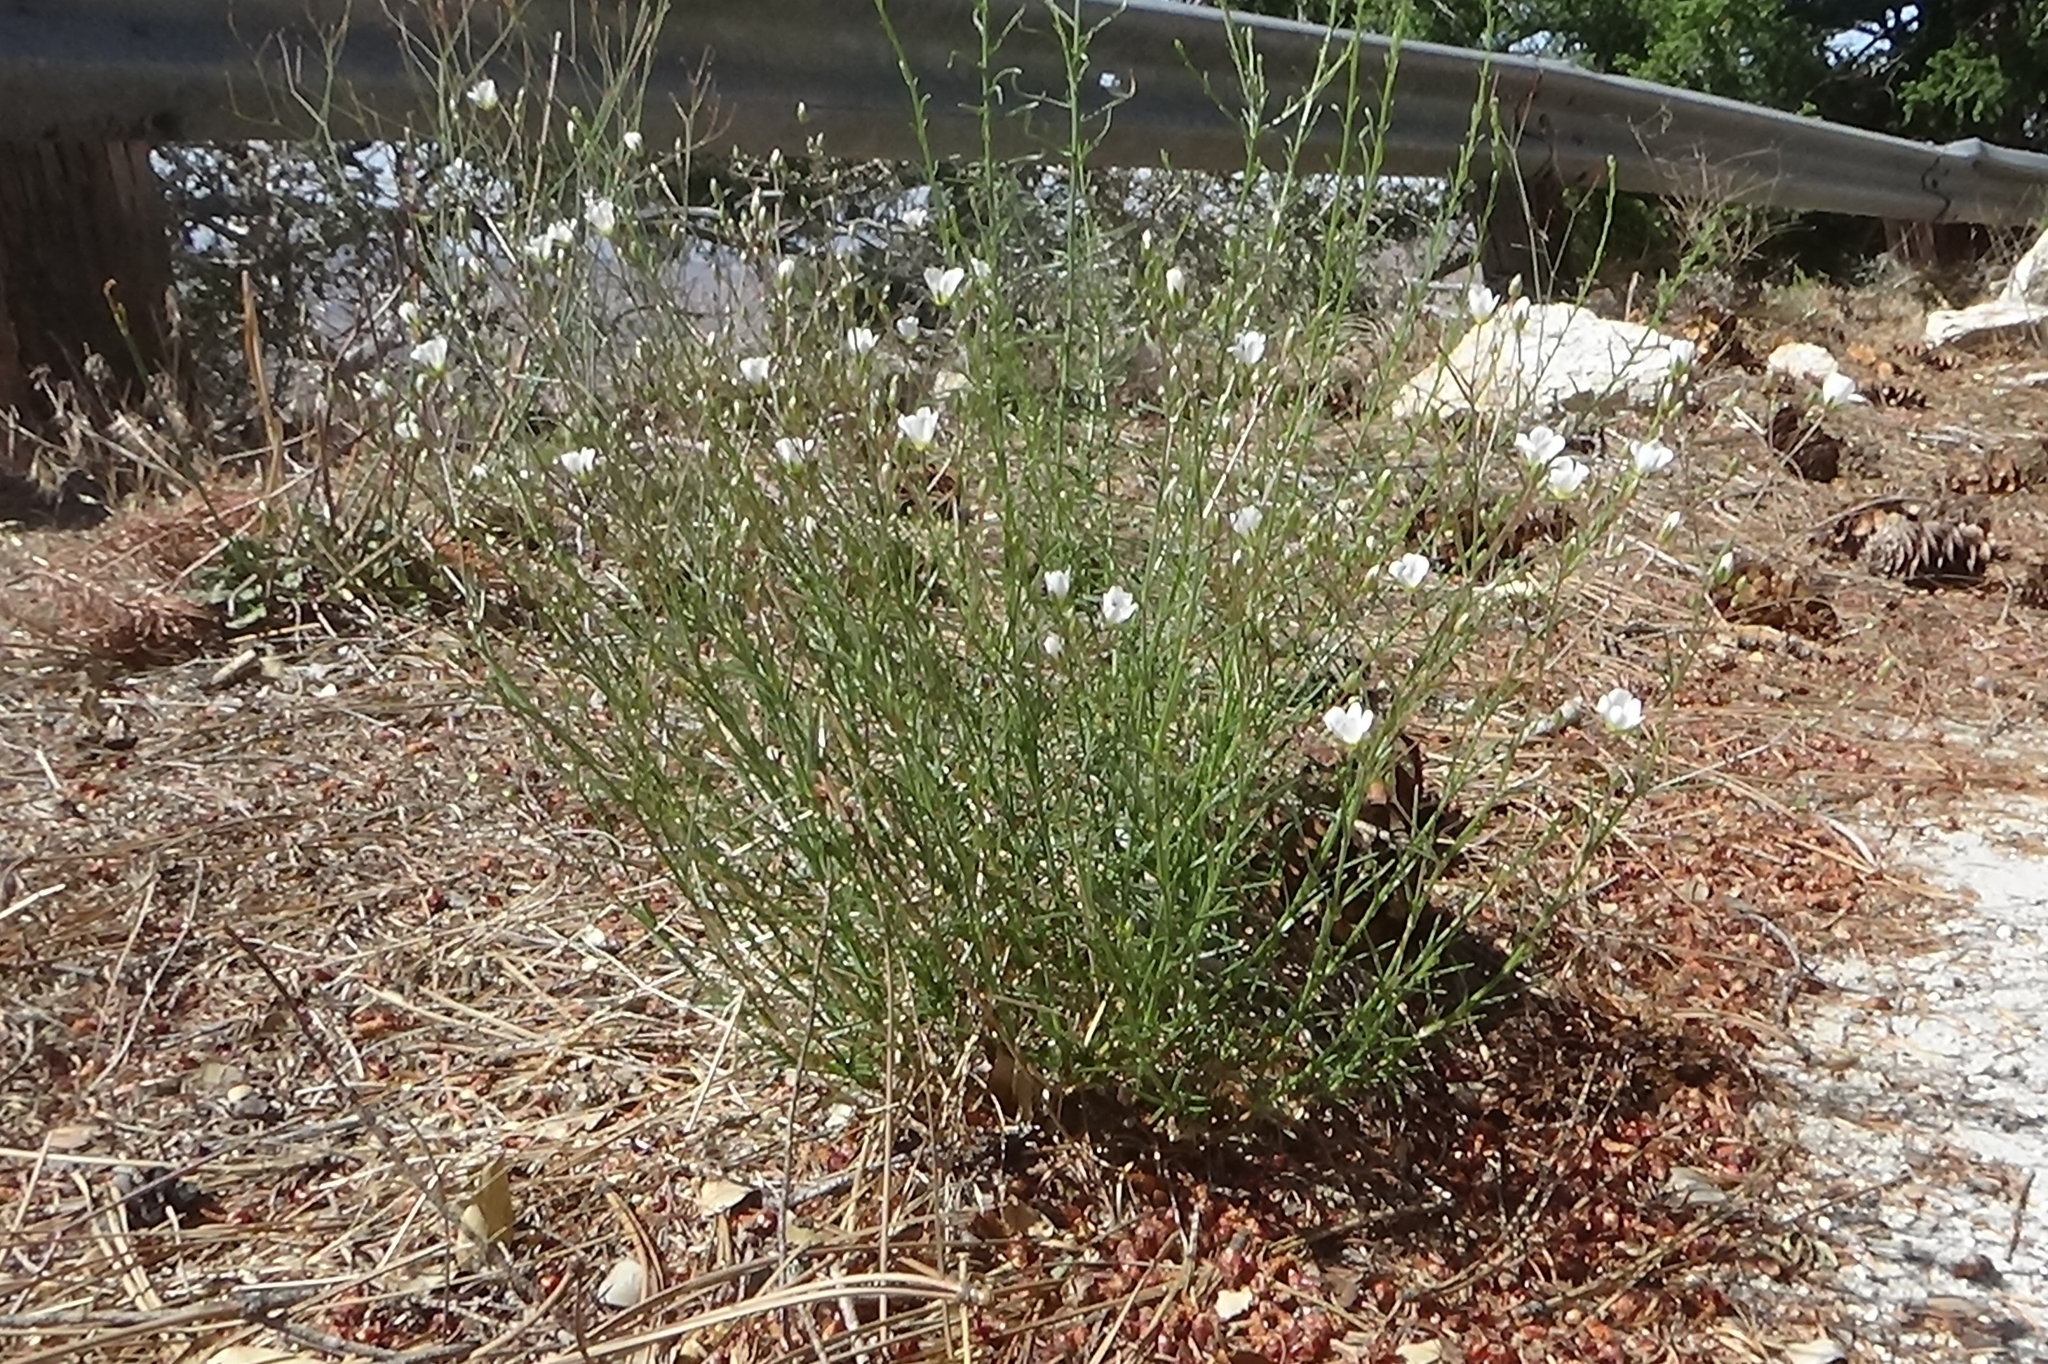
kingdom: Plantae
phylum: Tracheophyta
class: Magnoliopsida
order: Caryophyllales
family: Caryophyllaceae
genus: Eremogone
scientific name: Eremogone macradenia
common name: Mohave sandwort
